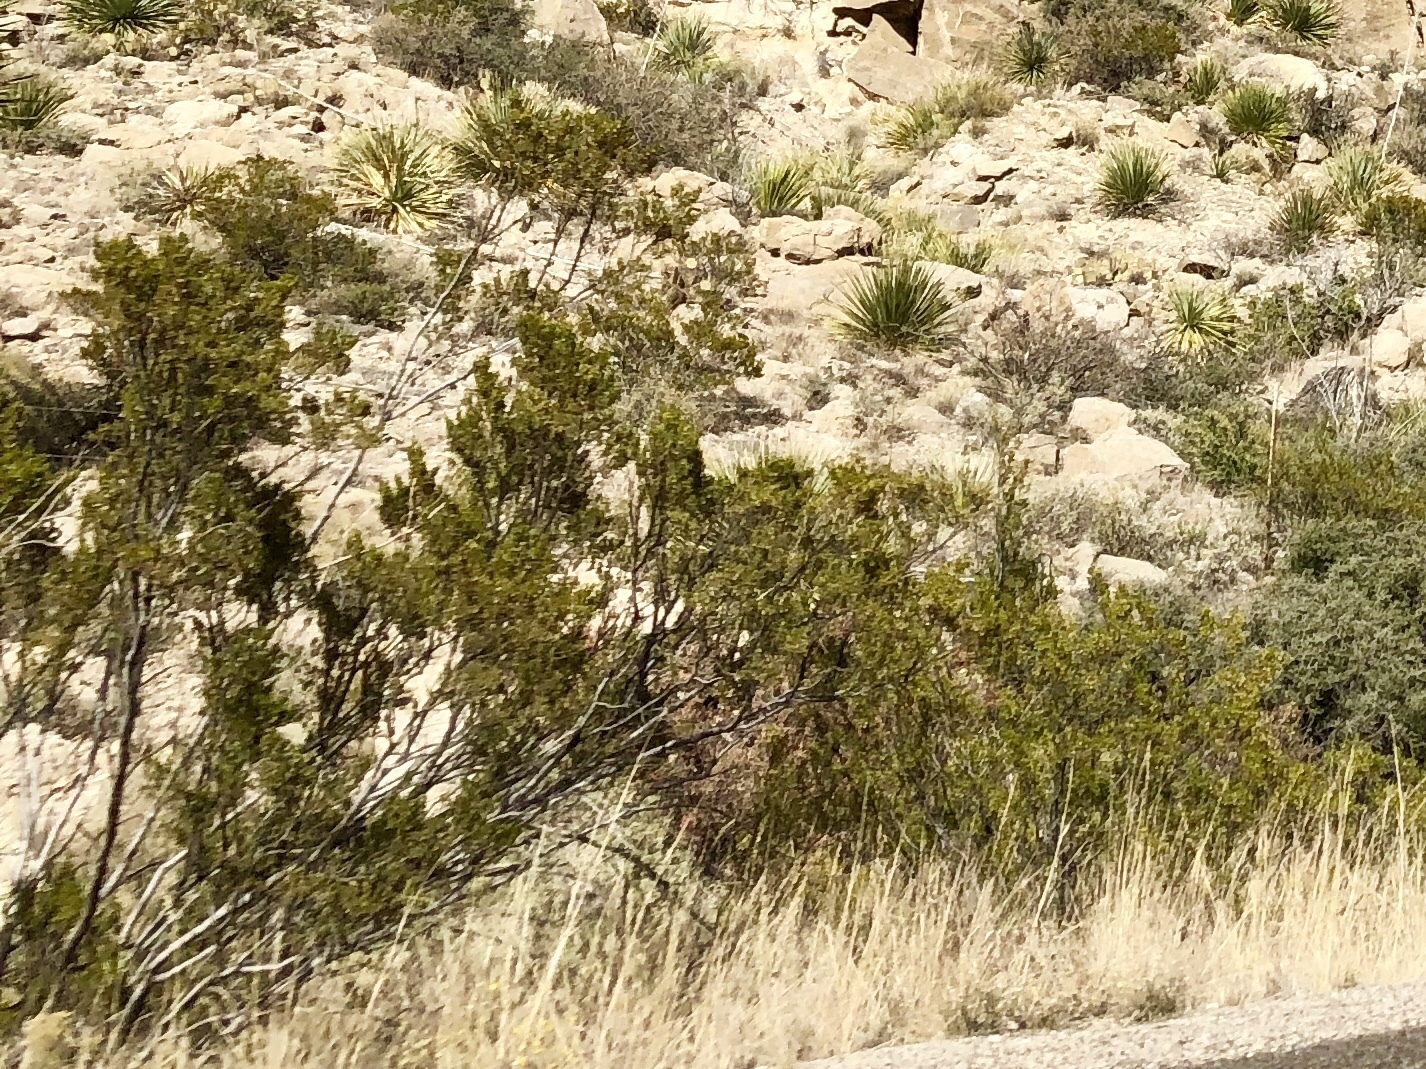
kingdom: Plantae
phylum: Tracheophyta
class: Magnoliopsida
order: Zygophyllales
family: Zygophyllaceae
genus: Larrea
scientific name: Larrea tridentata
